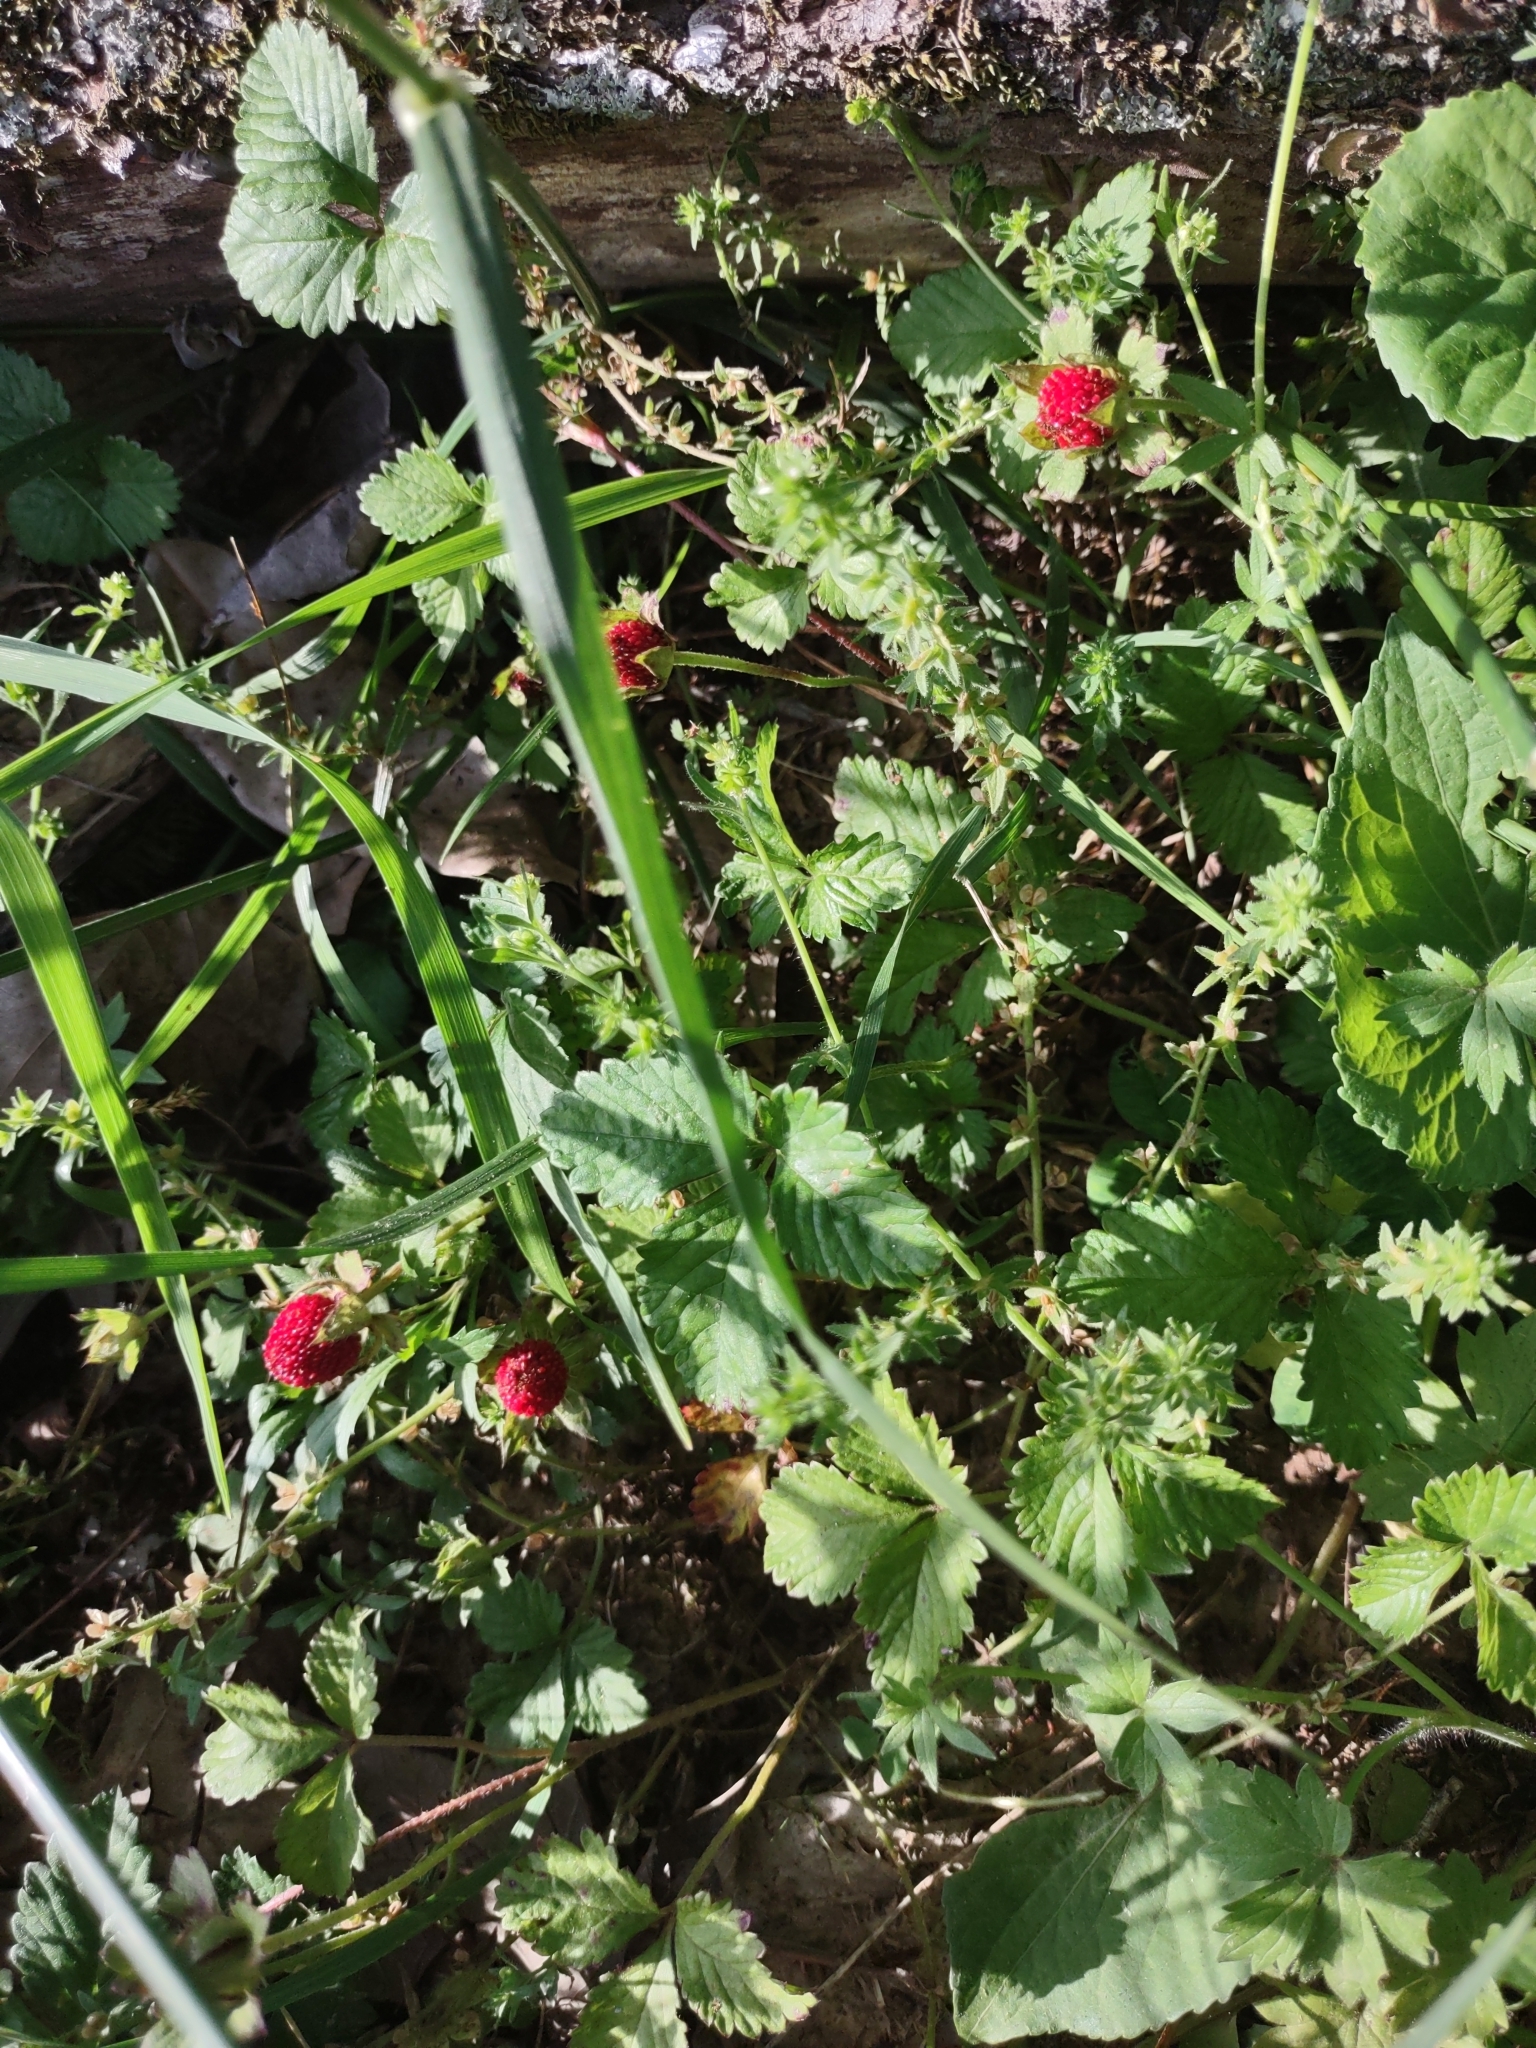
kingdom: Plantae
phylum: Tracheophyta
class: Magnoliopsida
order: Rosales
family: Rosaceae
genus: Potentilla
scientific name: Potentilla indica
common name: Yellow-flowered strawberry
